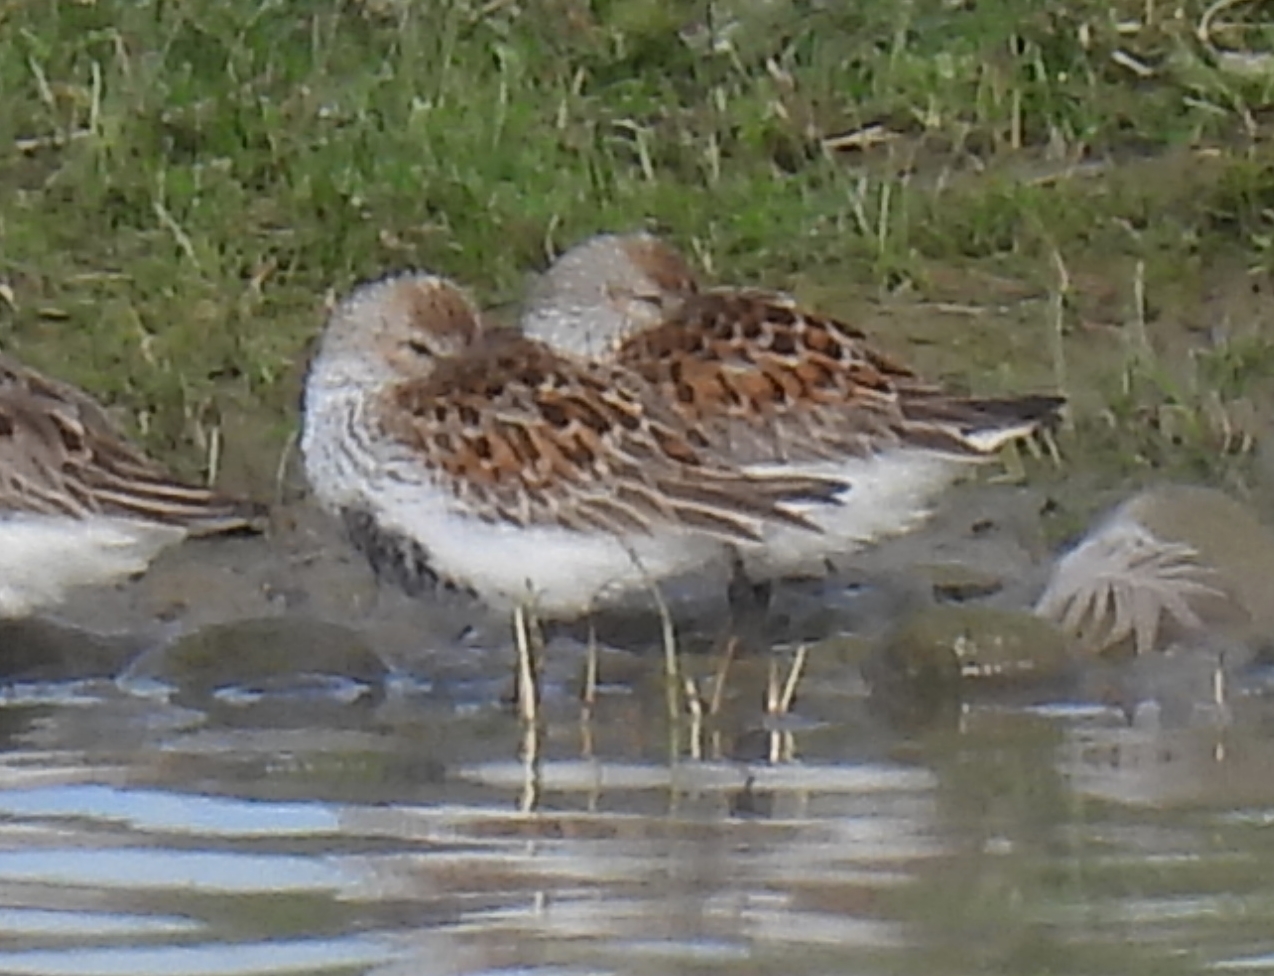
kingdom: Animalia
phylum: Chordata
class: Aves
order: Charadriiformes
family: Scolopacidae
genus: Calidris
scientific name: Calidris alpina
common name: Dunlin
